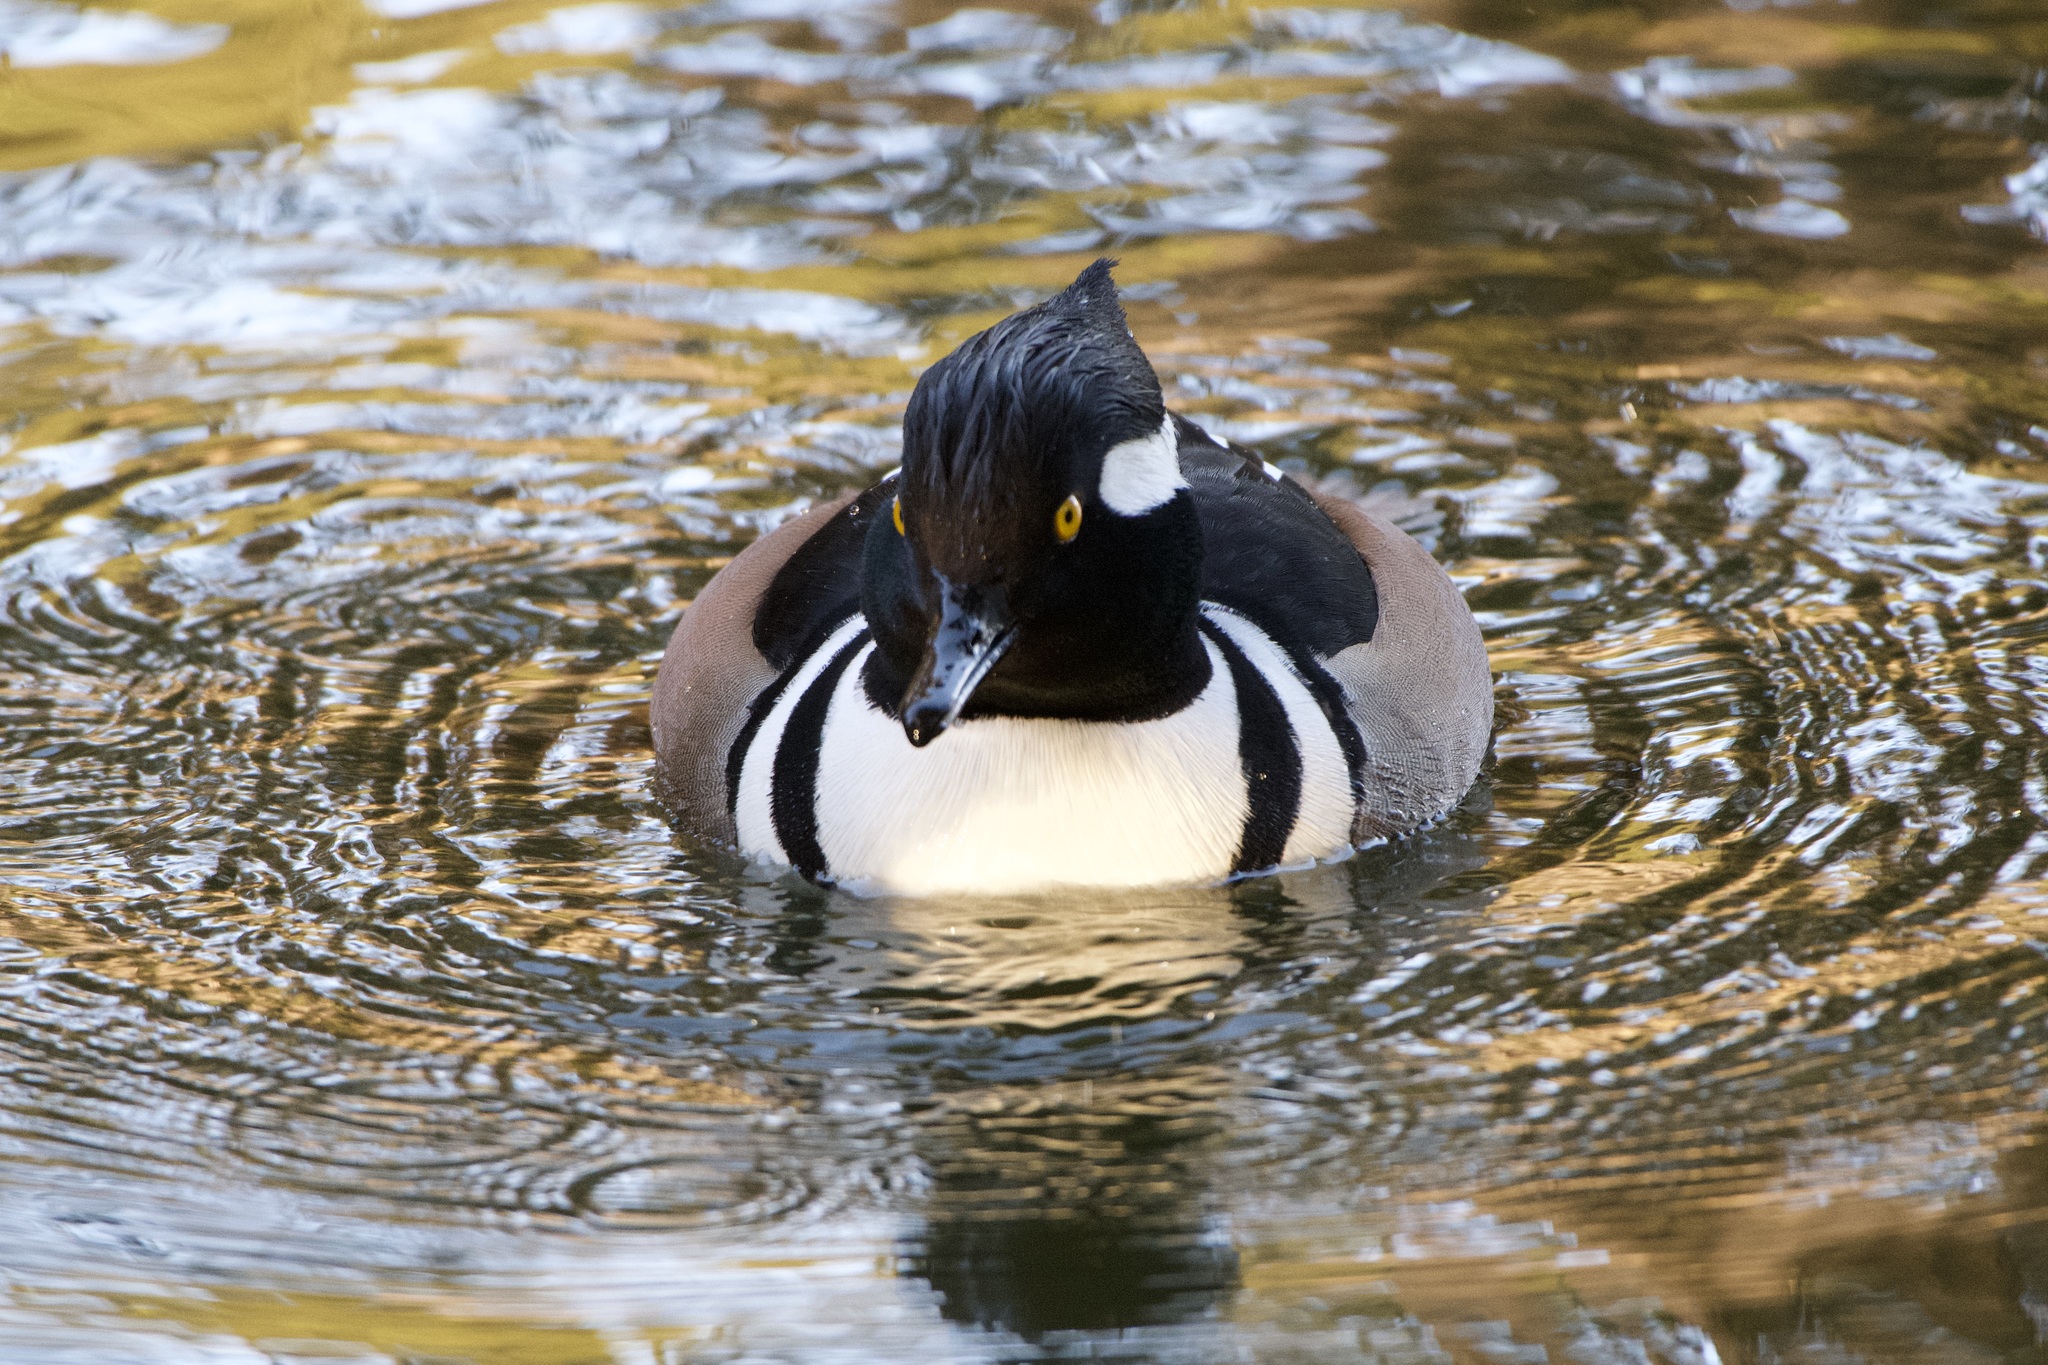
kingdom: Animalia
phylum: Chordata
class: Aves
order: Anseriformes
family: Anatidae
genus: Lophodytes
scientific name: Lophodytes cucullatus
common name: Hooded merganser
